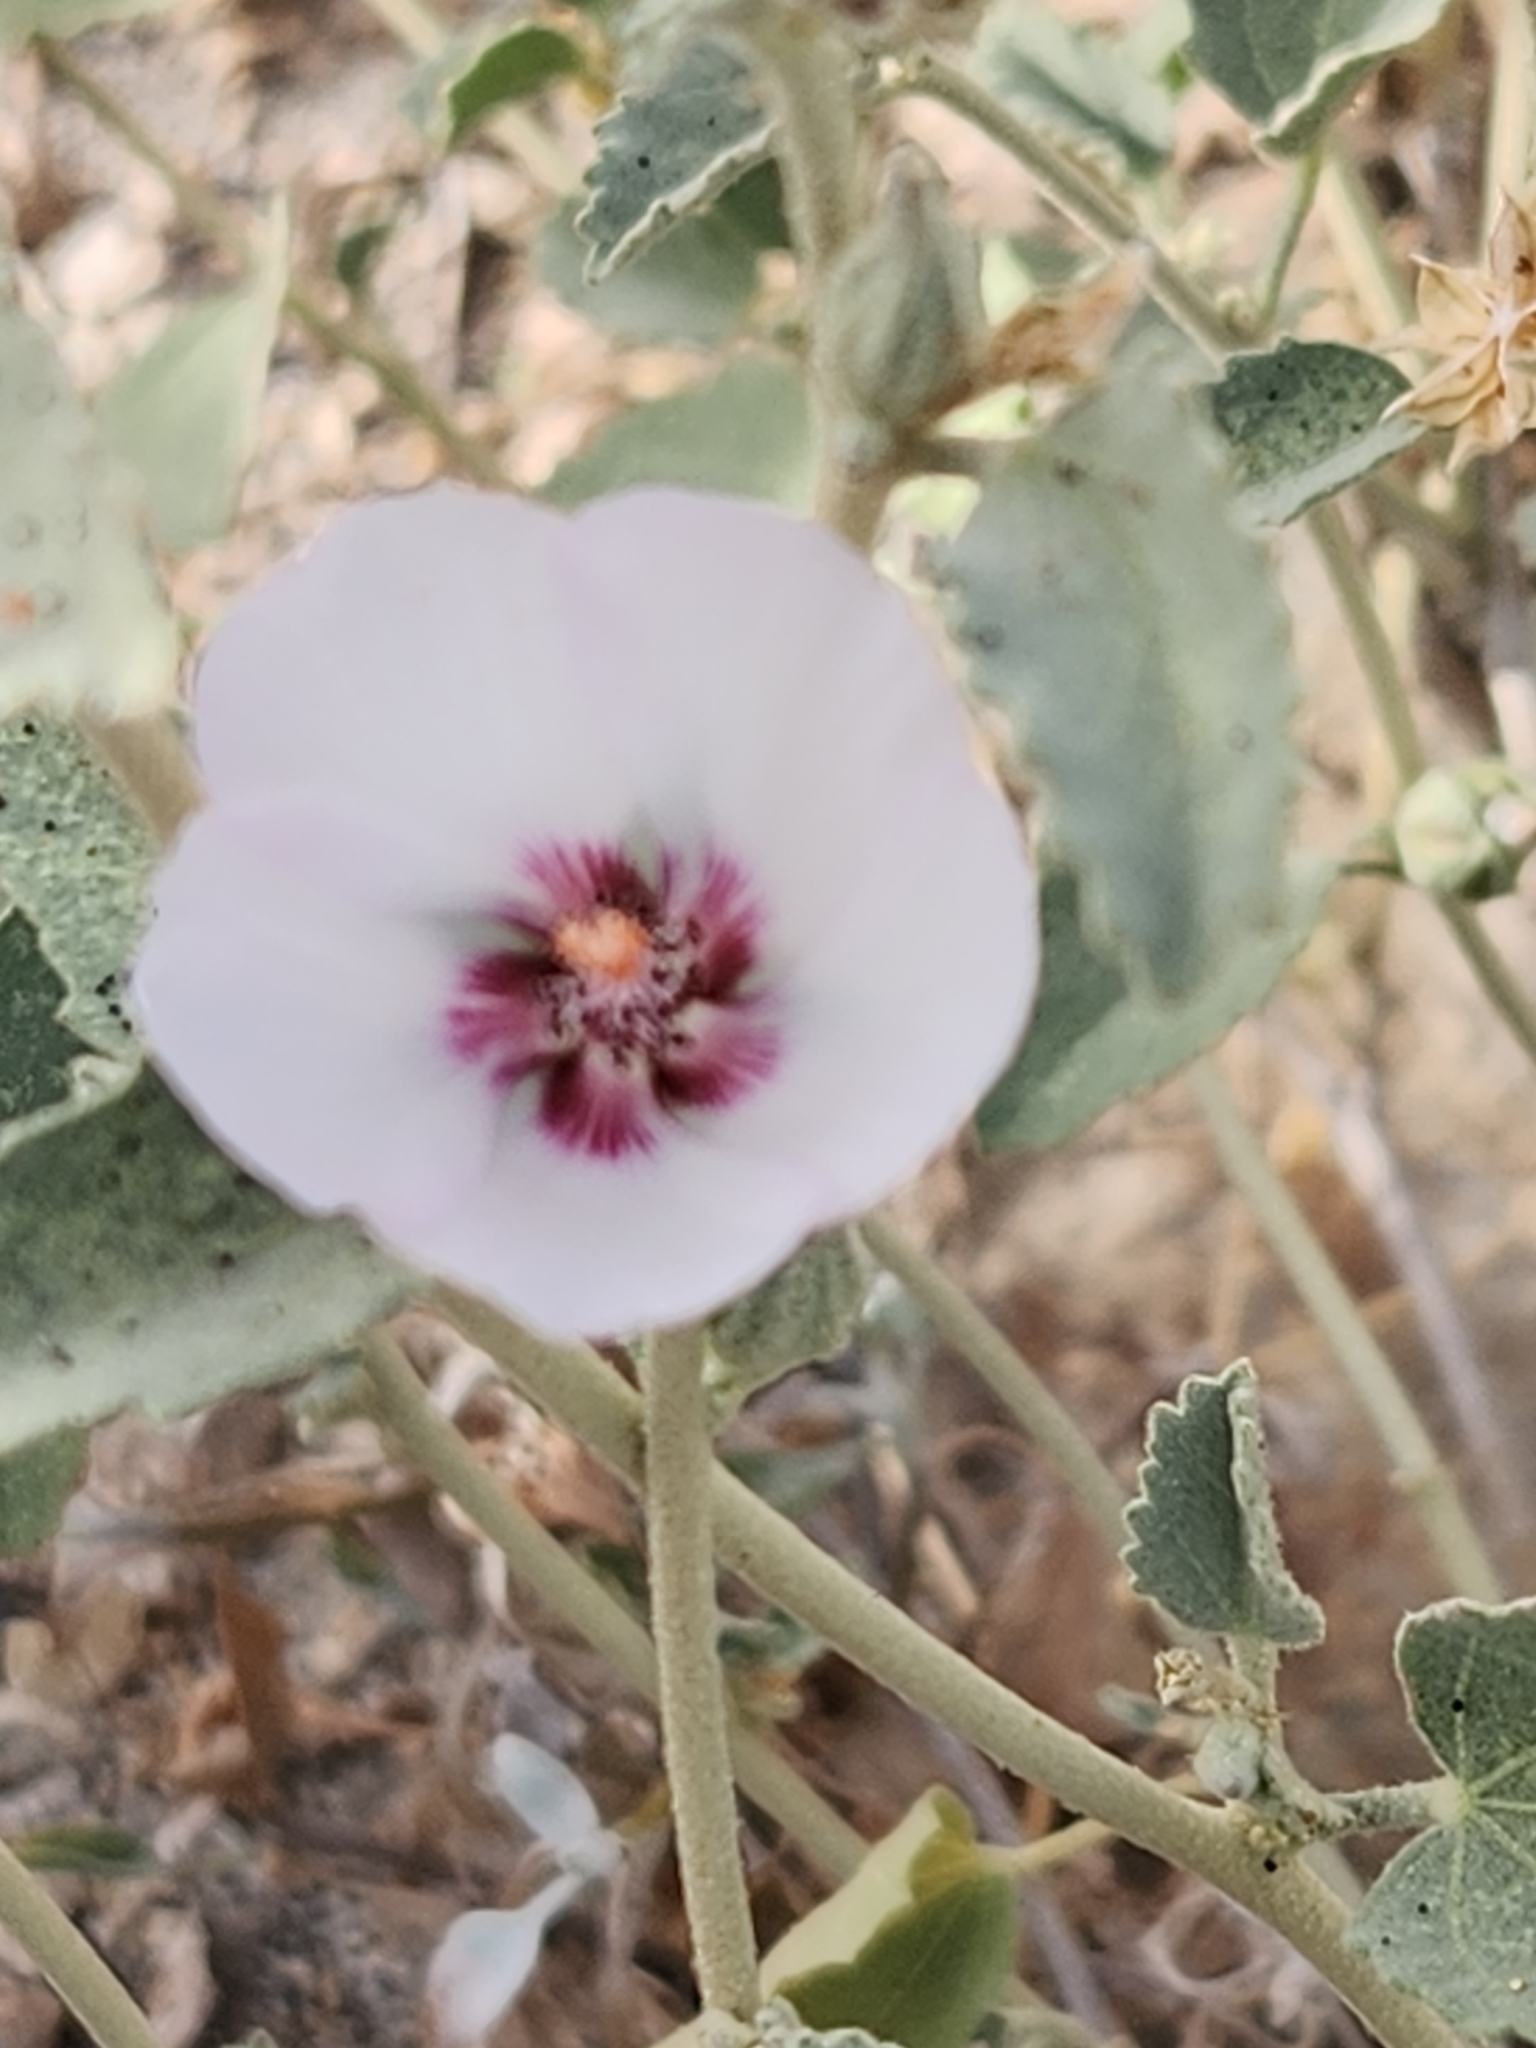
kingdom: Plantae
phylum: Tracheophyta
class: Magnoliopsida
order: Malvales
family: Malvaceae
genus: Hibiscus
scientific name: Hibiscus denudatus
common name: Paleface
